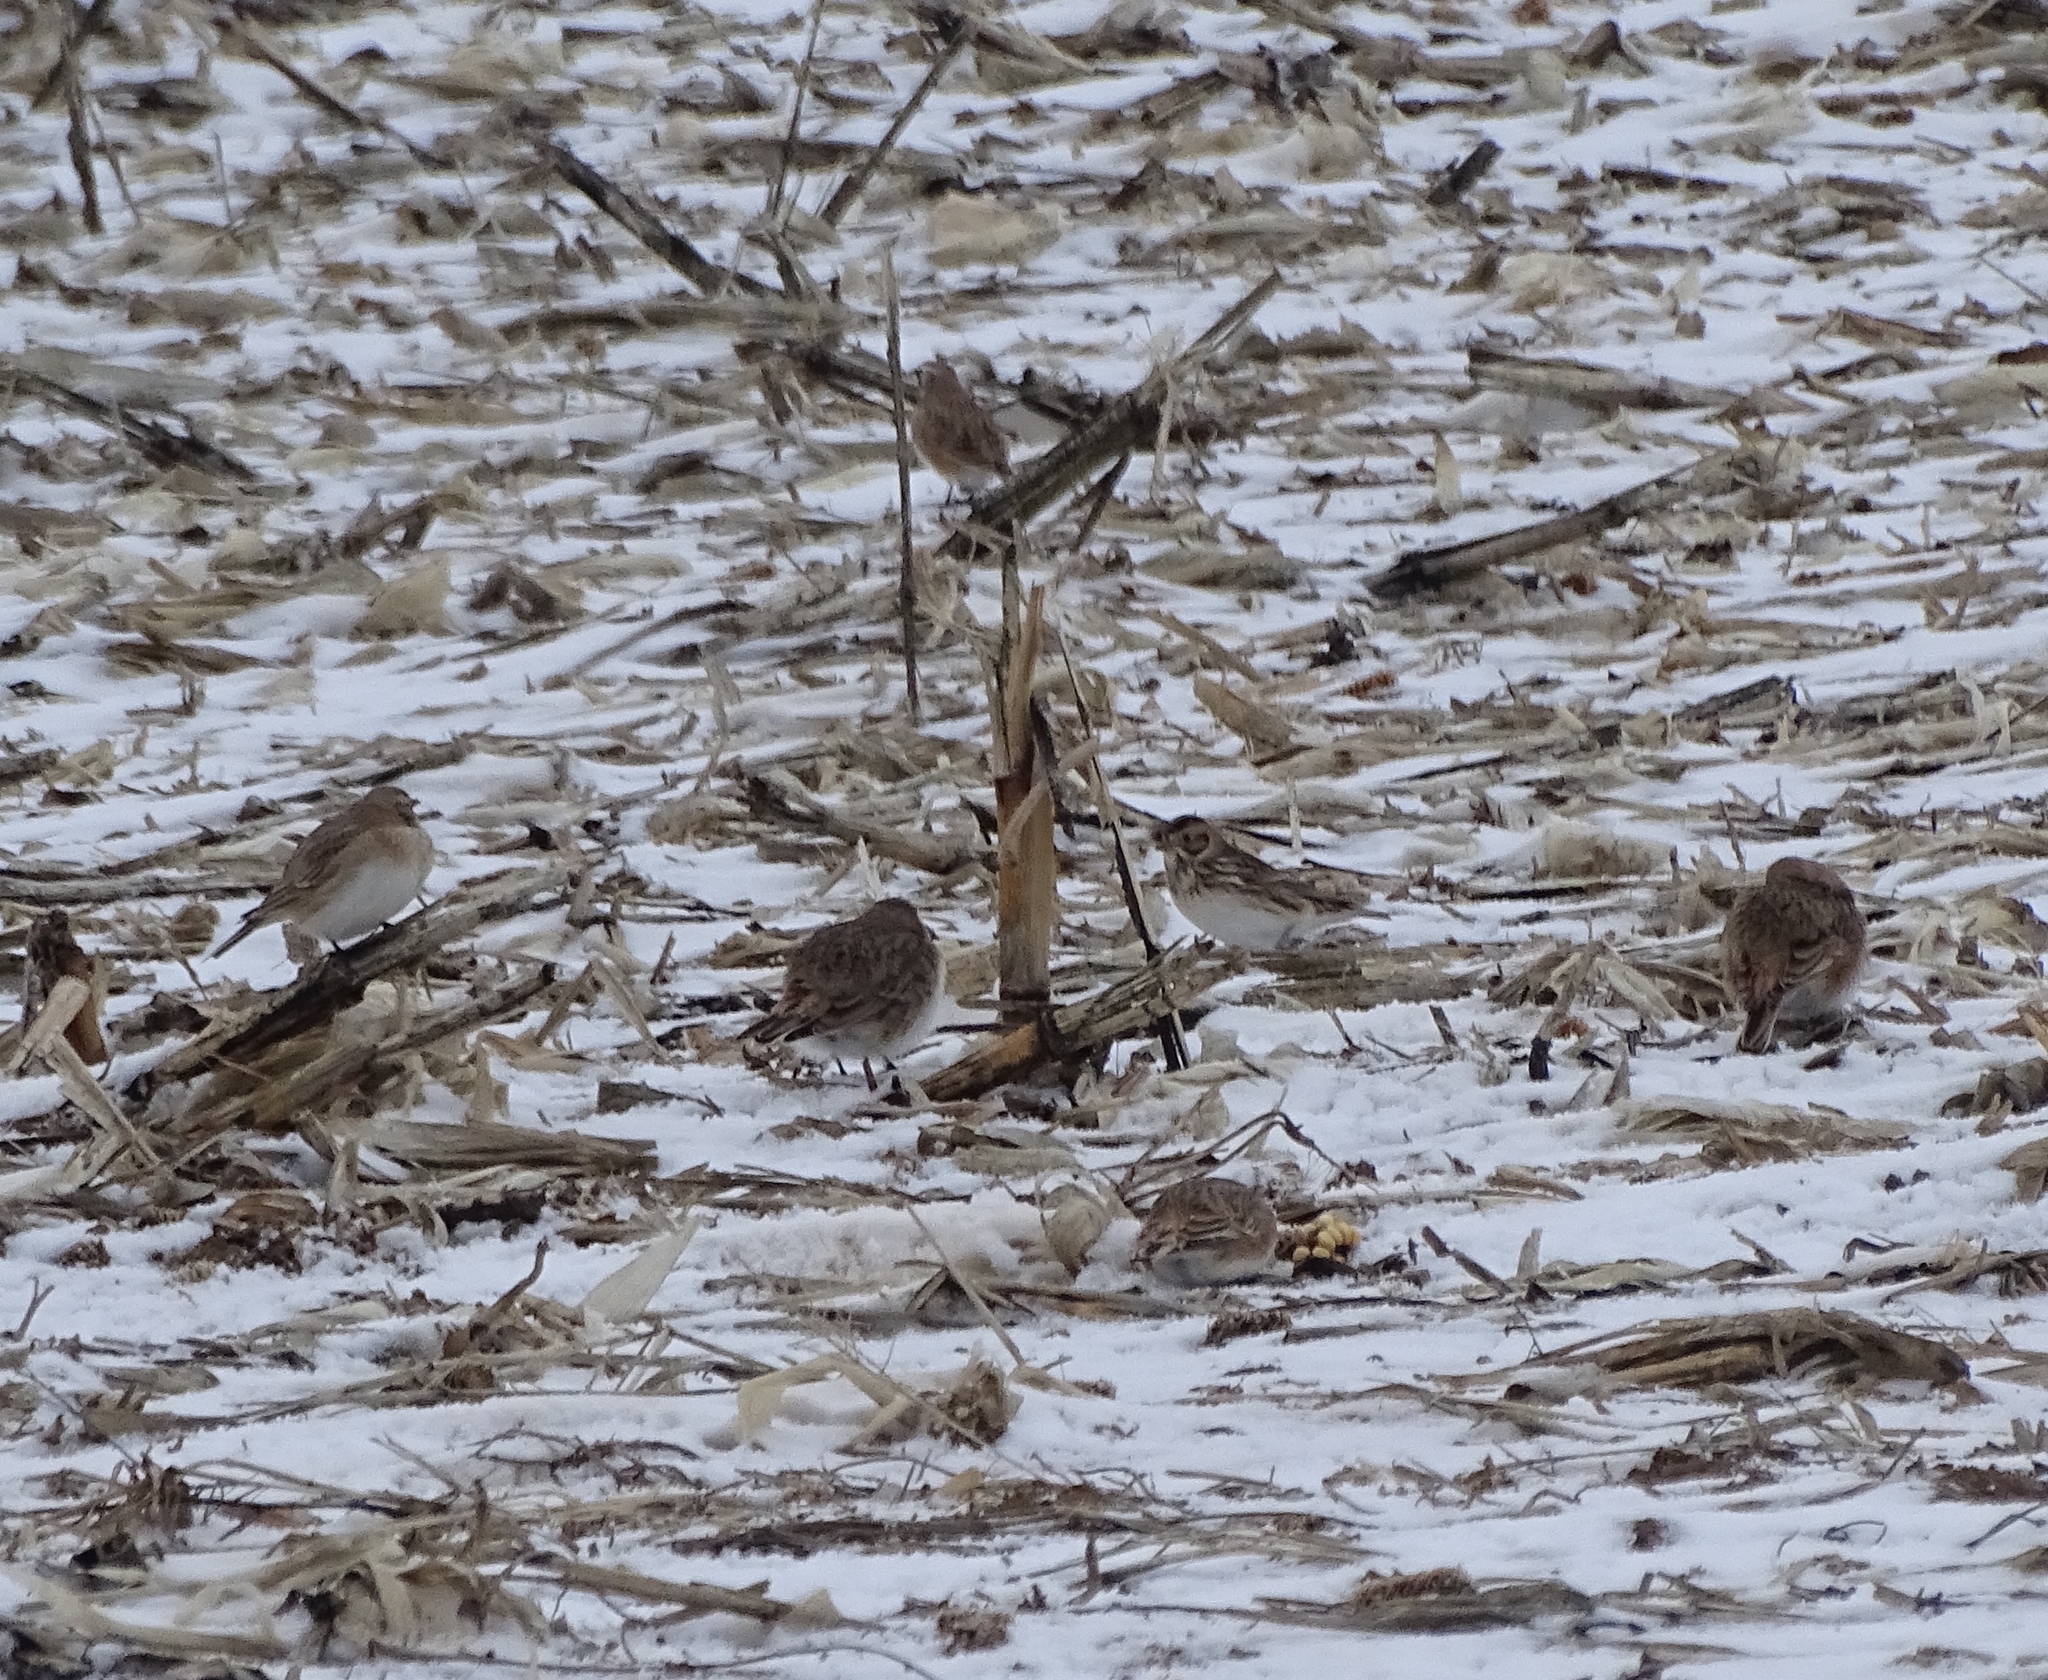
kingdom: Animalia
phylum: Chordata
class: Aves
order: Passeriformes
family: Calcariidae
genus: Calcarius
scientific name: Calcarius lapponicus
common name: Lapland longspur
